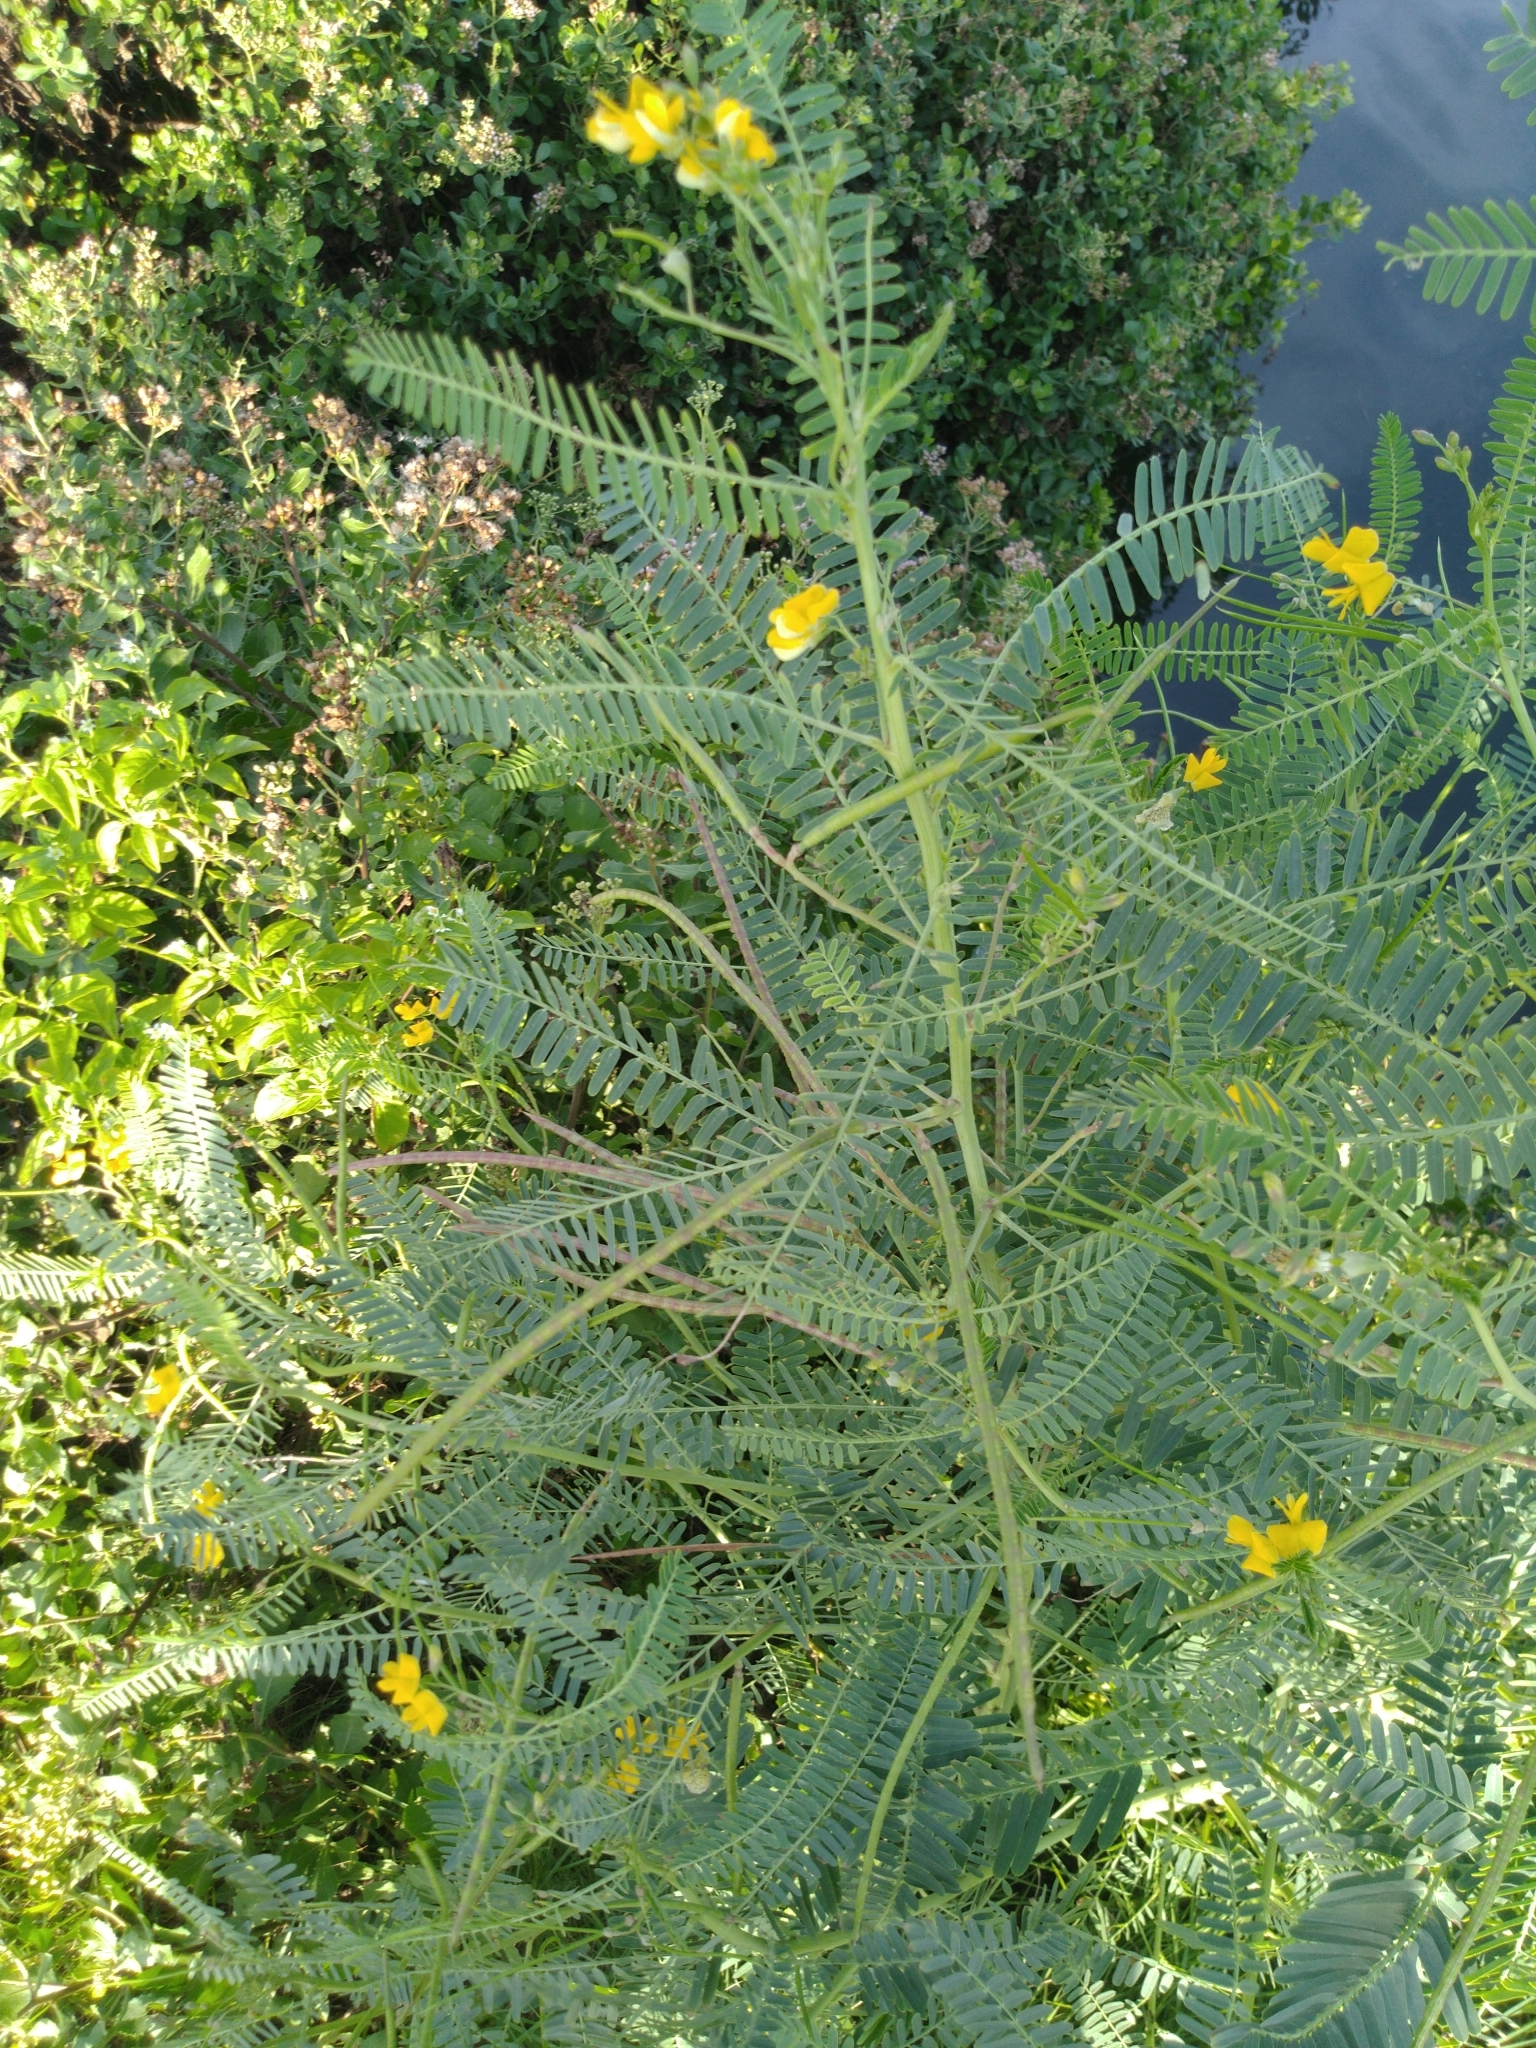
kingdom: Plantae
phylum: Tracheophyta
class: Magnoliopsida
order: Fabales
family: Fabaceae
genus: Sesbania
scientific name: Sesbania cannabina
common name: Canicha
